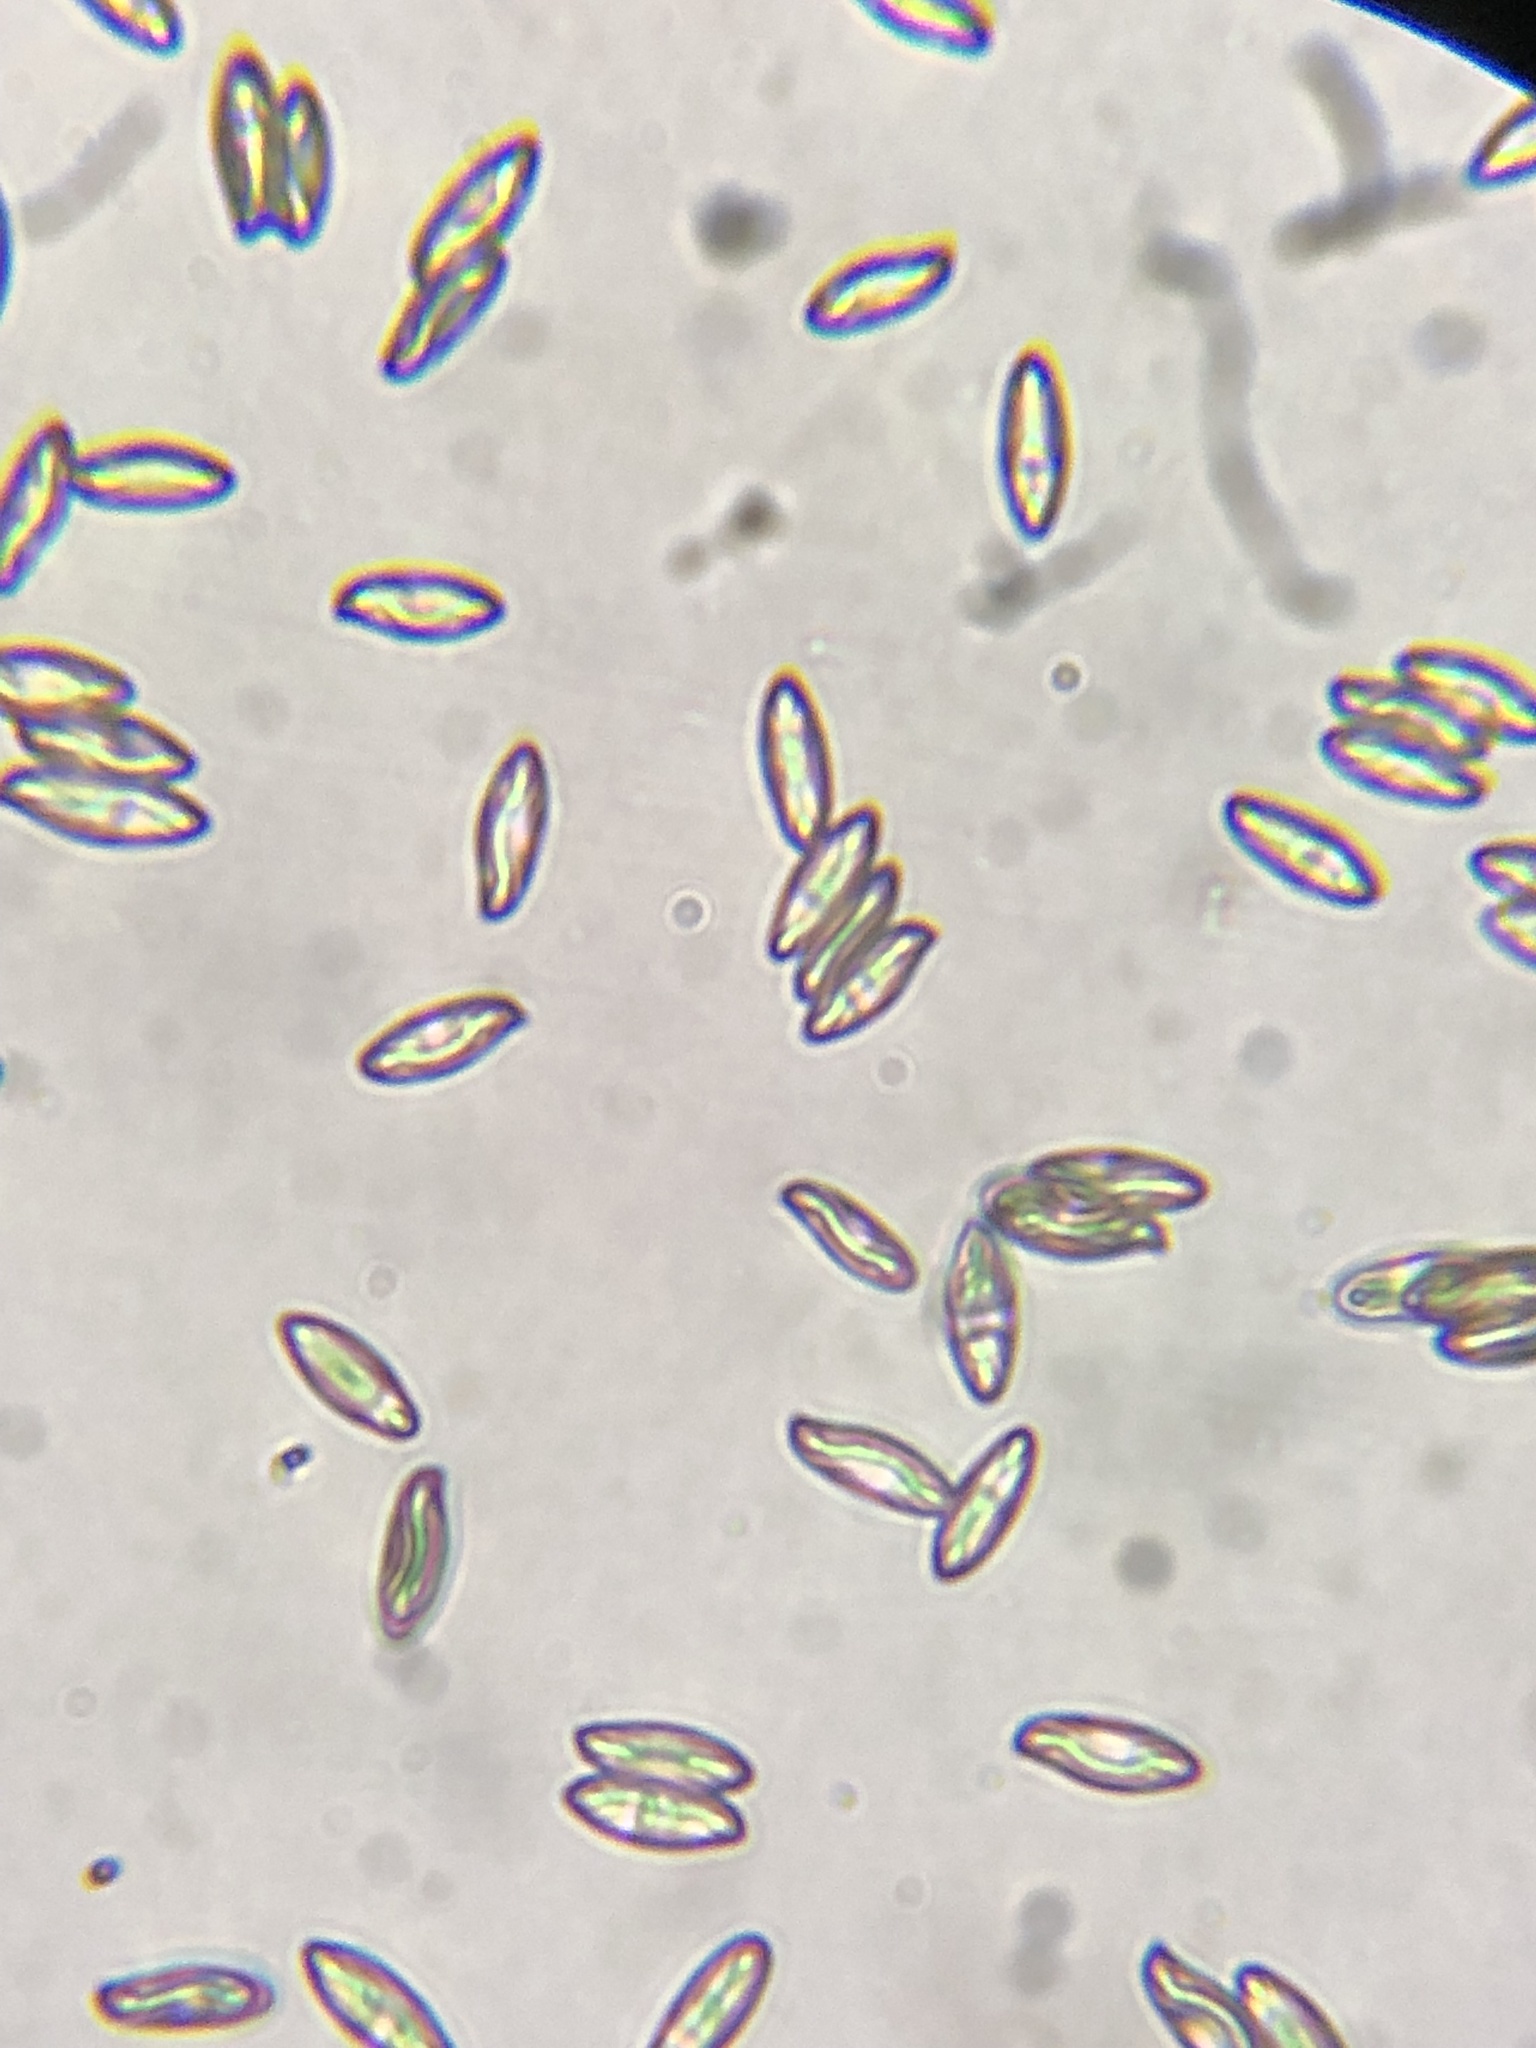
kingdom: Fungi
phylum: Basidiomycota
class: Agaricomycetes
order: Boletales
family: Boletaceae
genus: Butyriboletus
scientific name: Butyriboletus frostii
